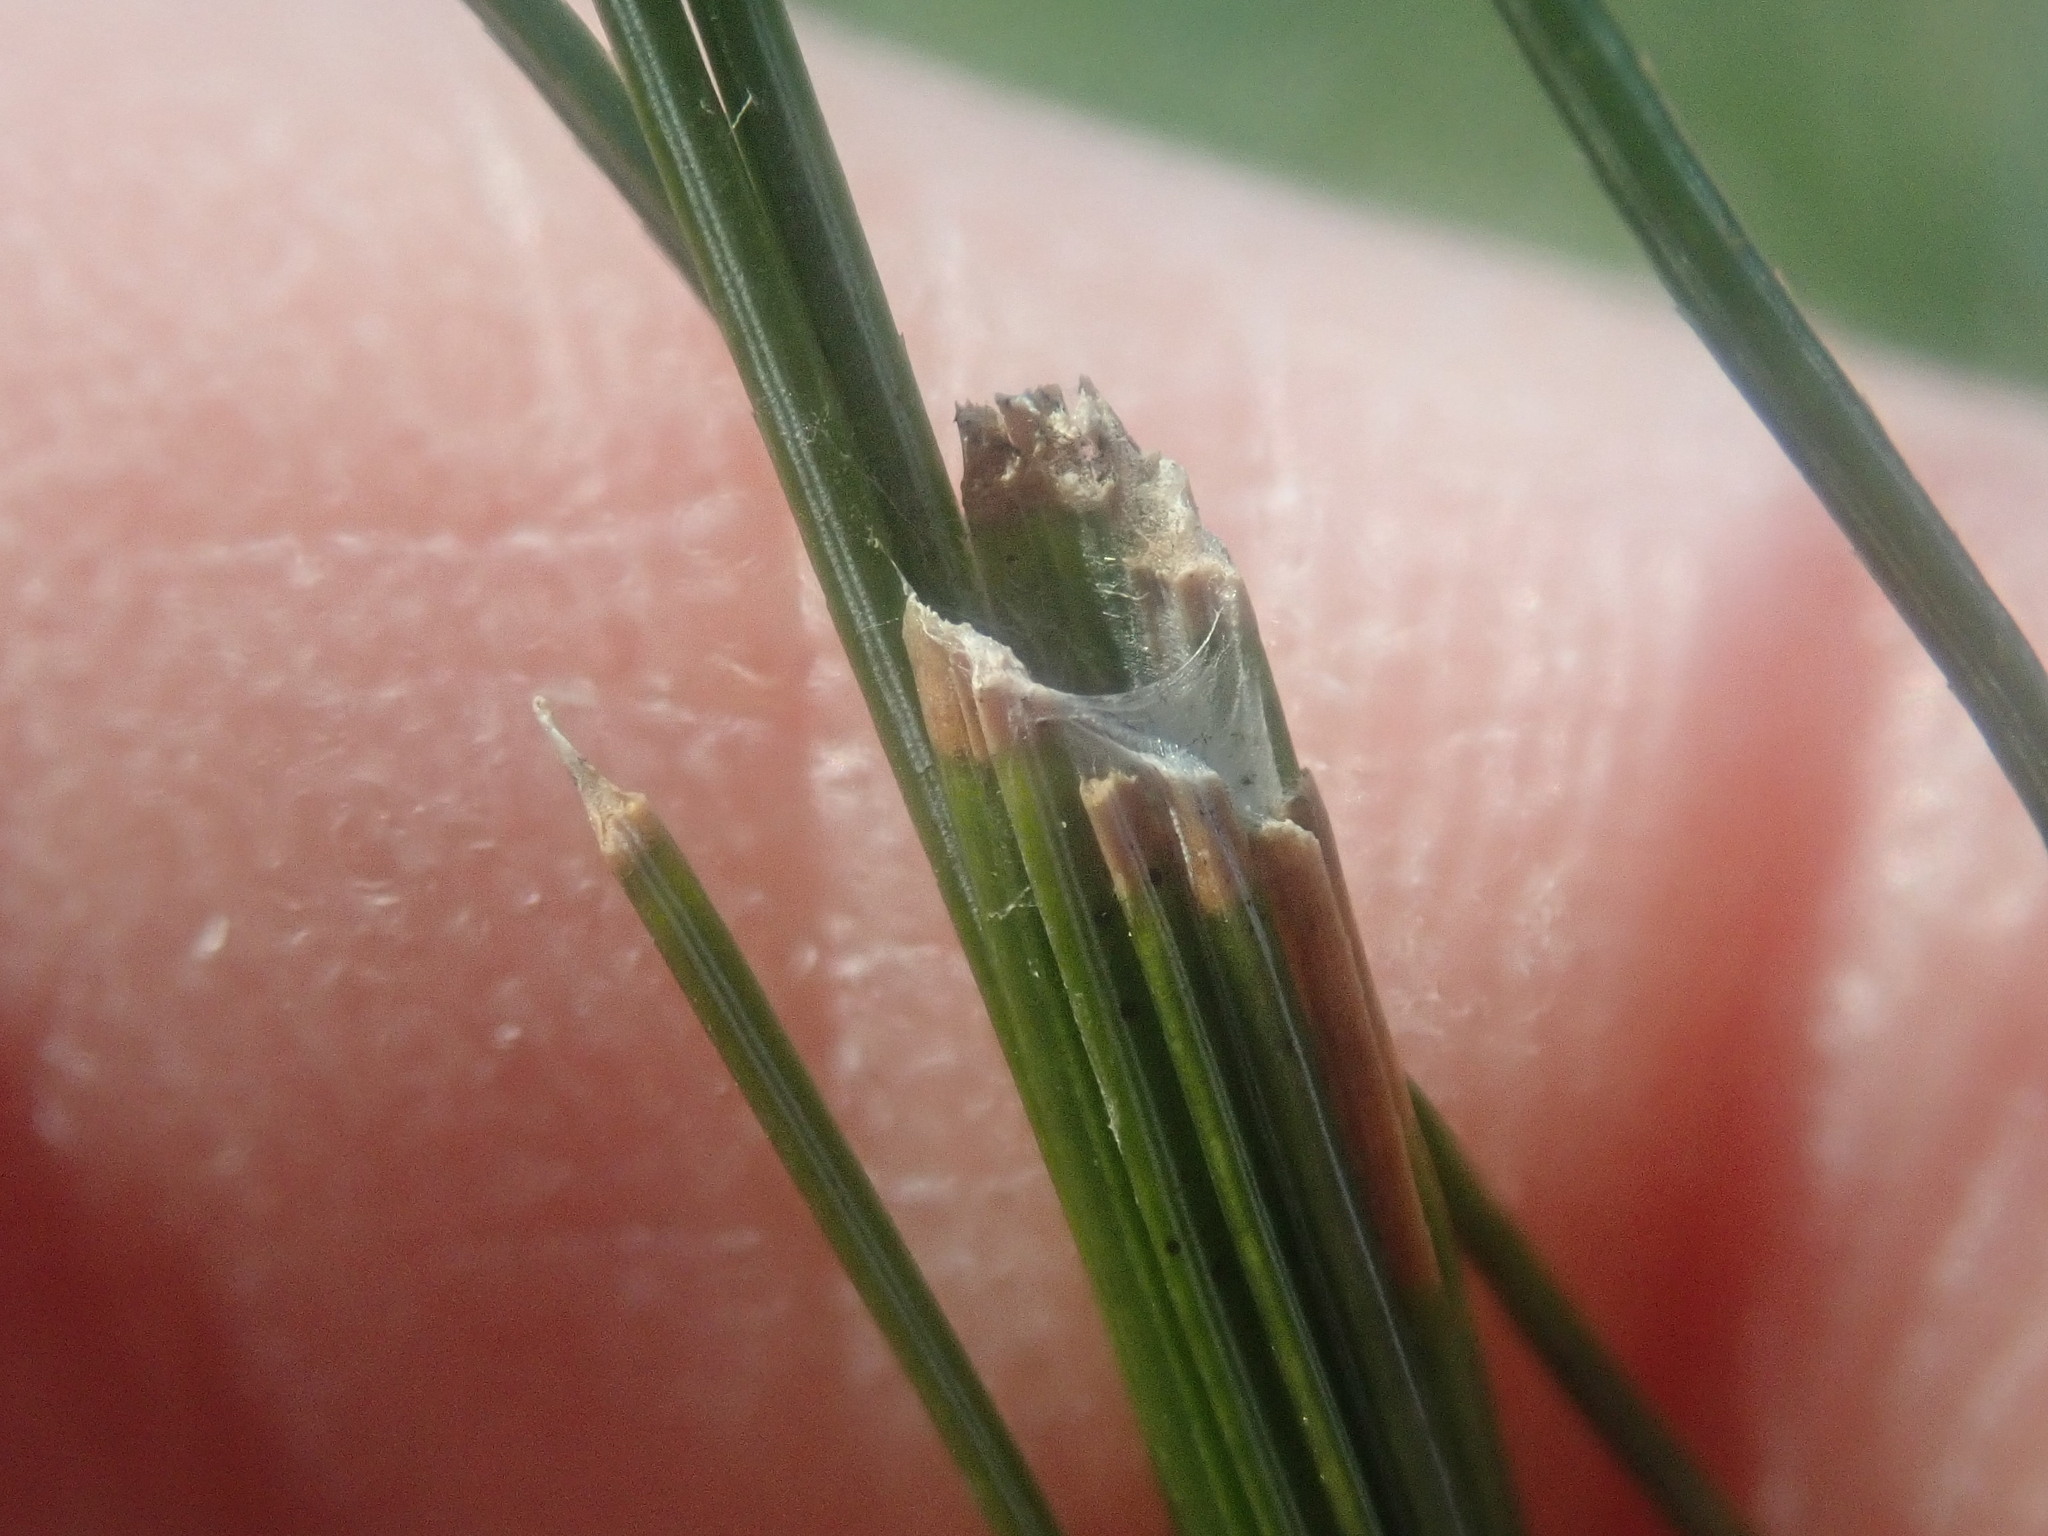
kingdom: Animalia
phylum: Arthropoda
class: Insecta
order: Lepidoptera
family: Tortricidae
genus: Argyrotaenia
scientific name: Argyrotaenia pinatubana
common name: Pine tube moth
